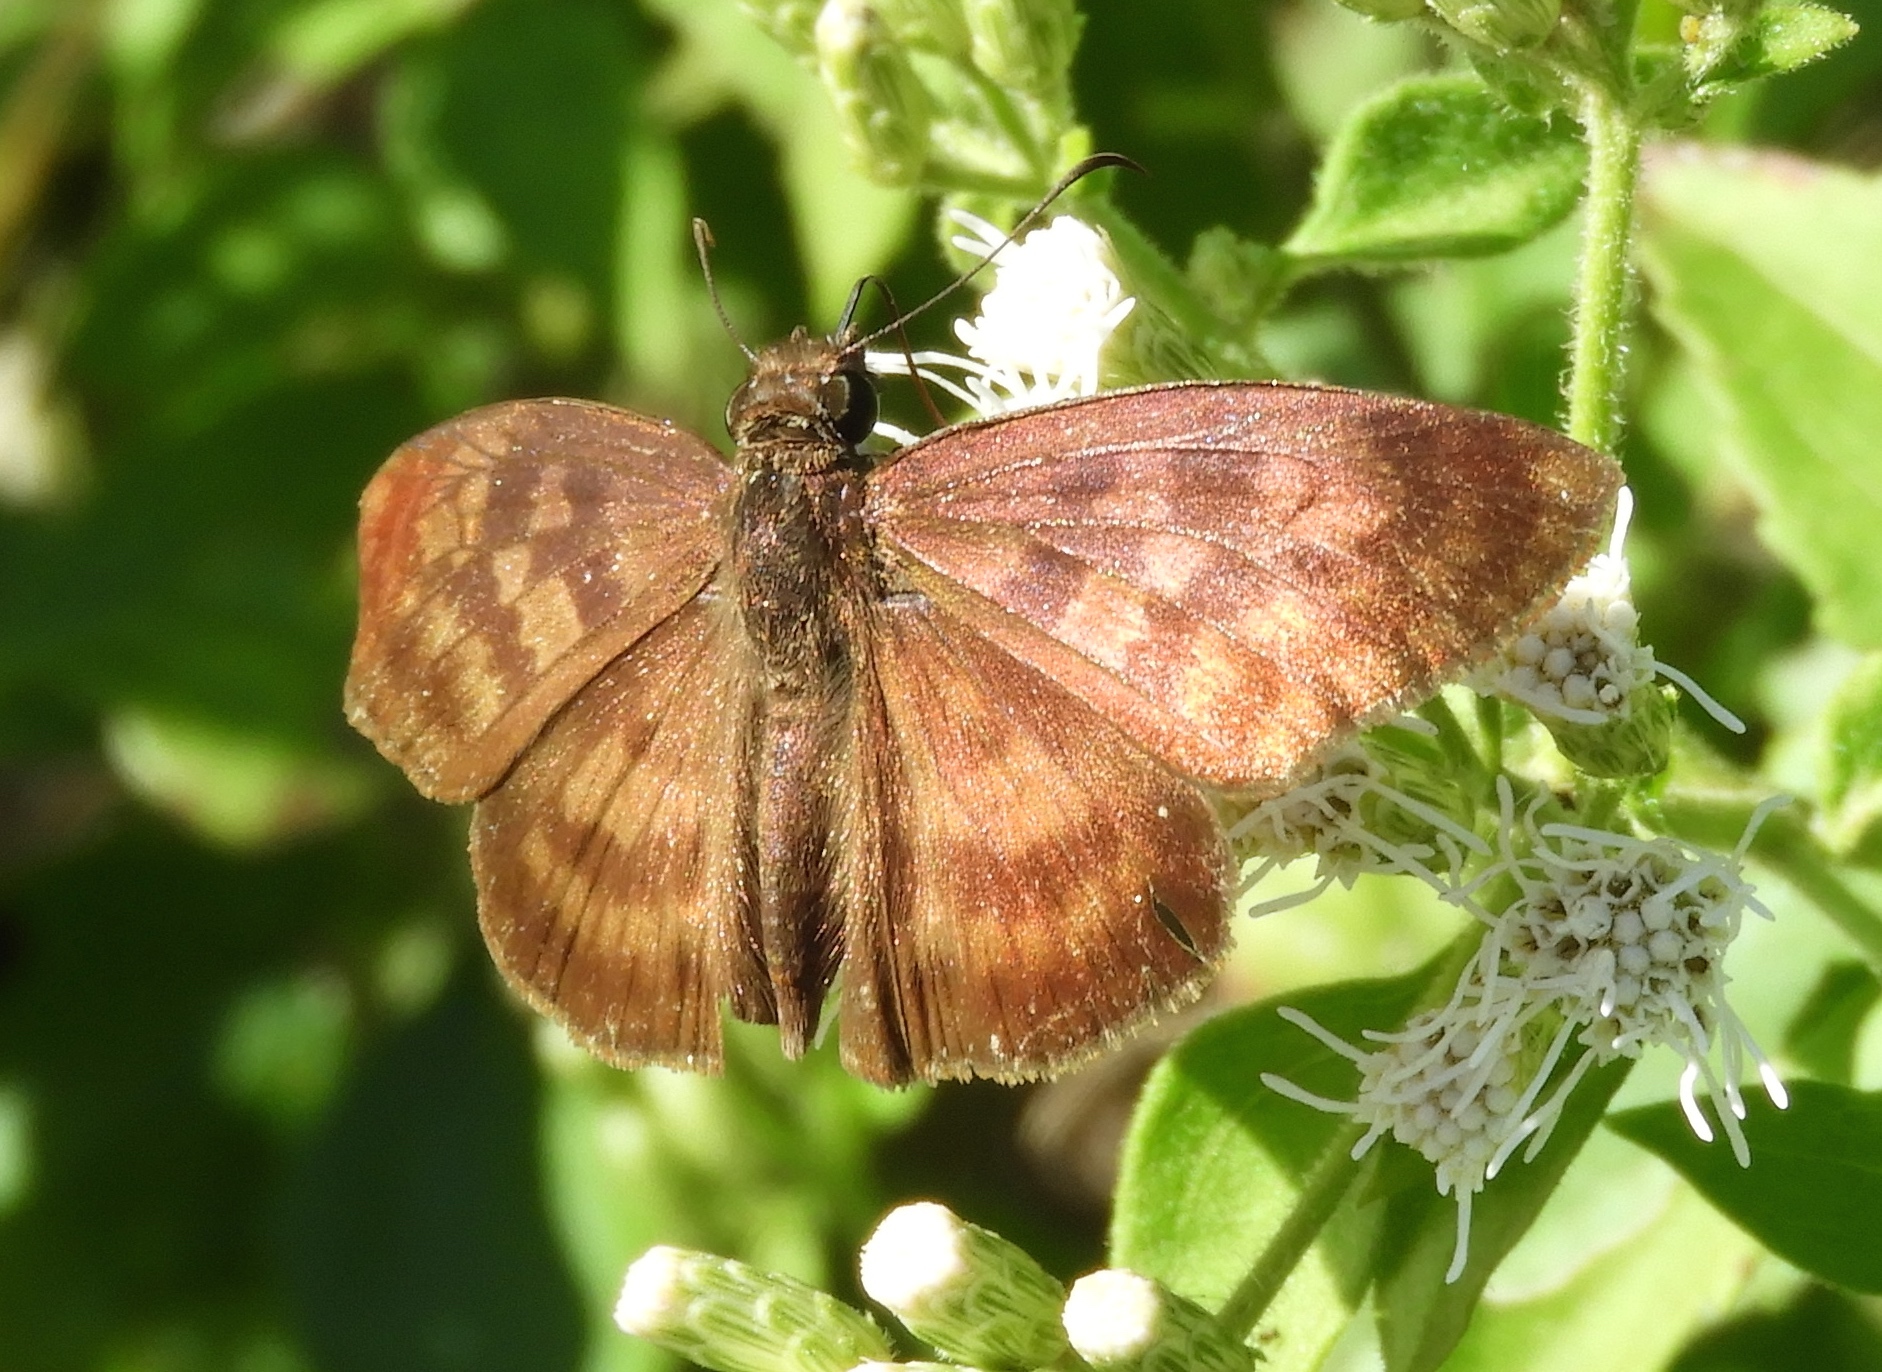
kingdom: Animalia
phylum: Arthropoda
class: Insecta
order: Lepidoptera
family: Hesperiidae
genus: Anastrus
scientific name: Anastrus Echelatus sempiternus
